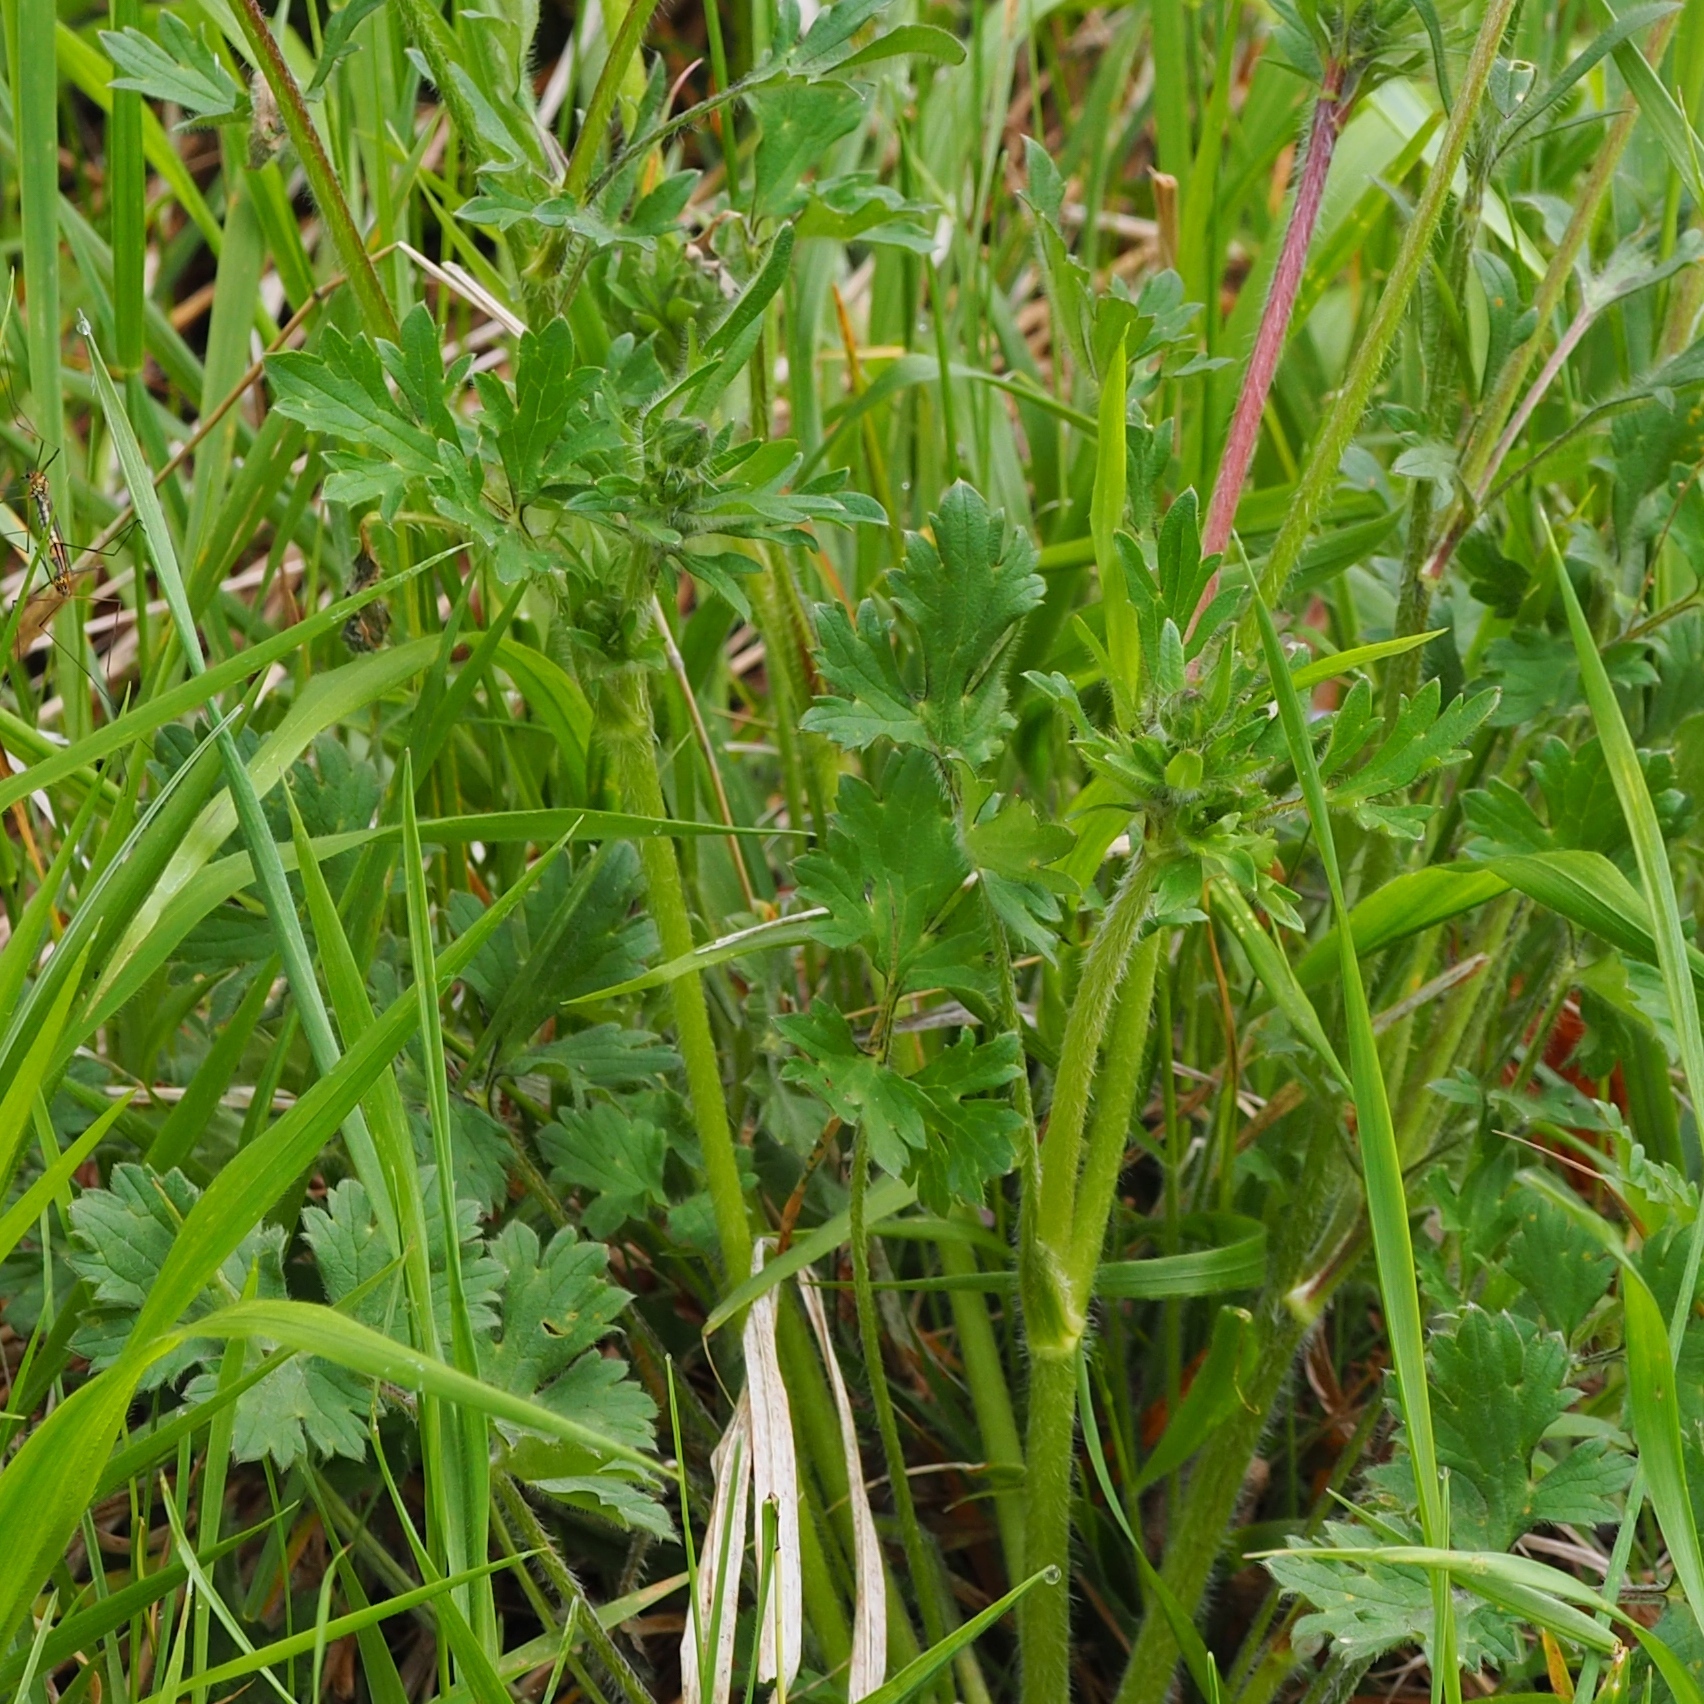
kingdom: Plantae
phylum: Tracheophyta
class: Magnoliopsida
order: Ranunculales
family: Ranunculaceae
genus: Ranunculus
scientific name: Ranunculus bulbosus
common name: Bulbous buttercup
